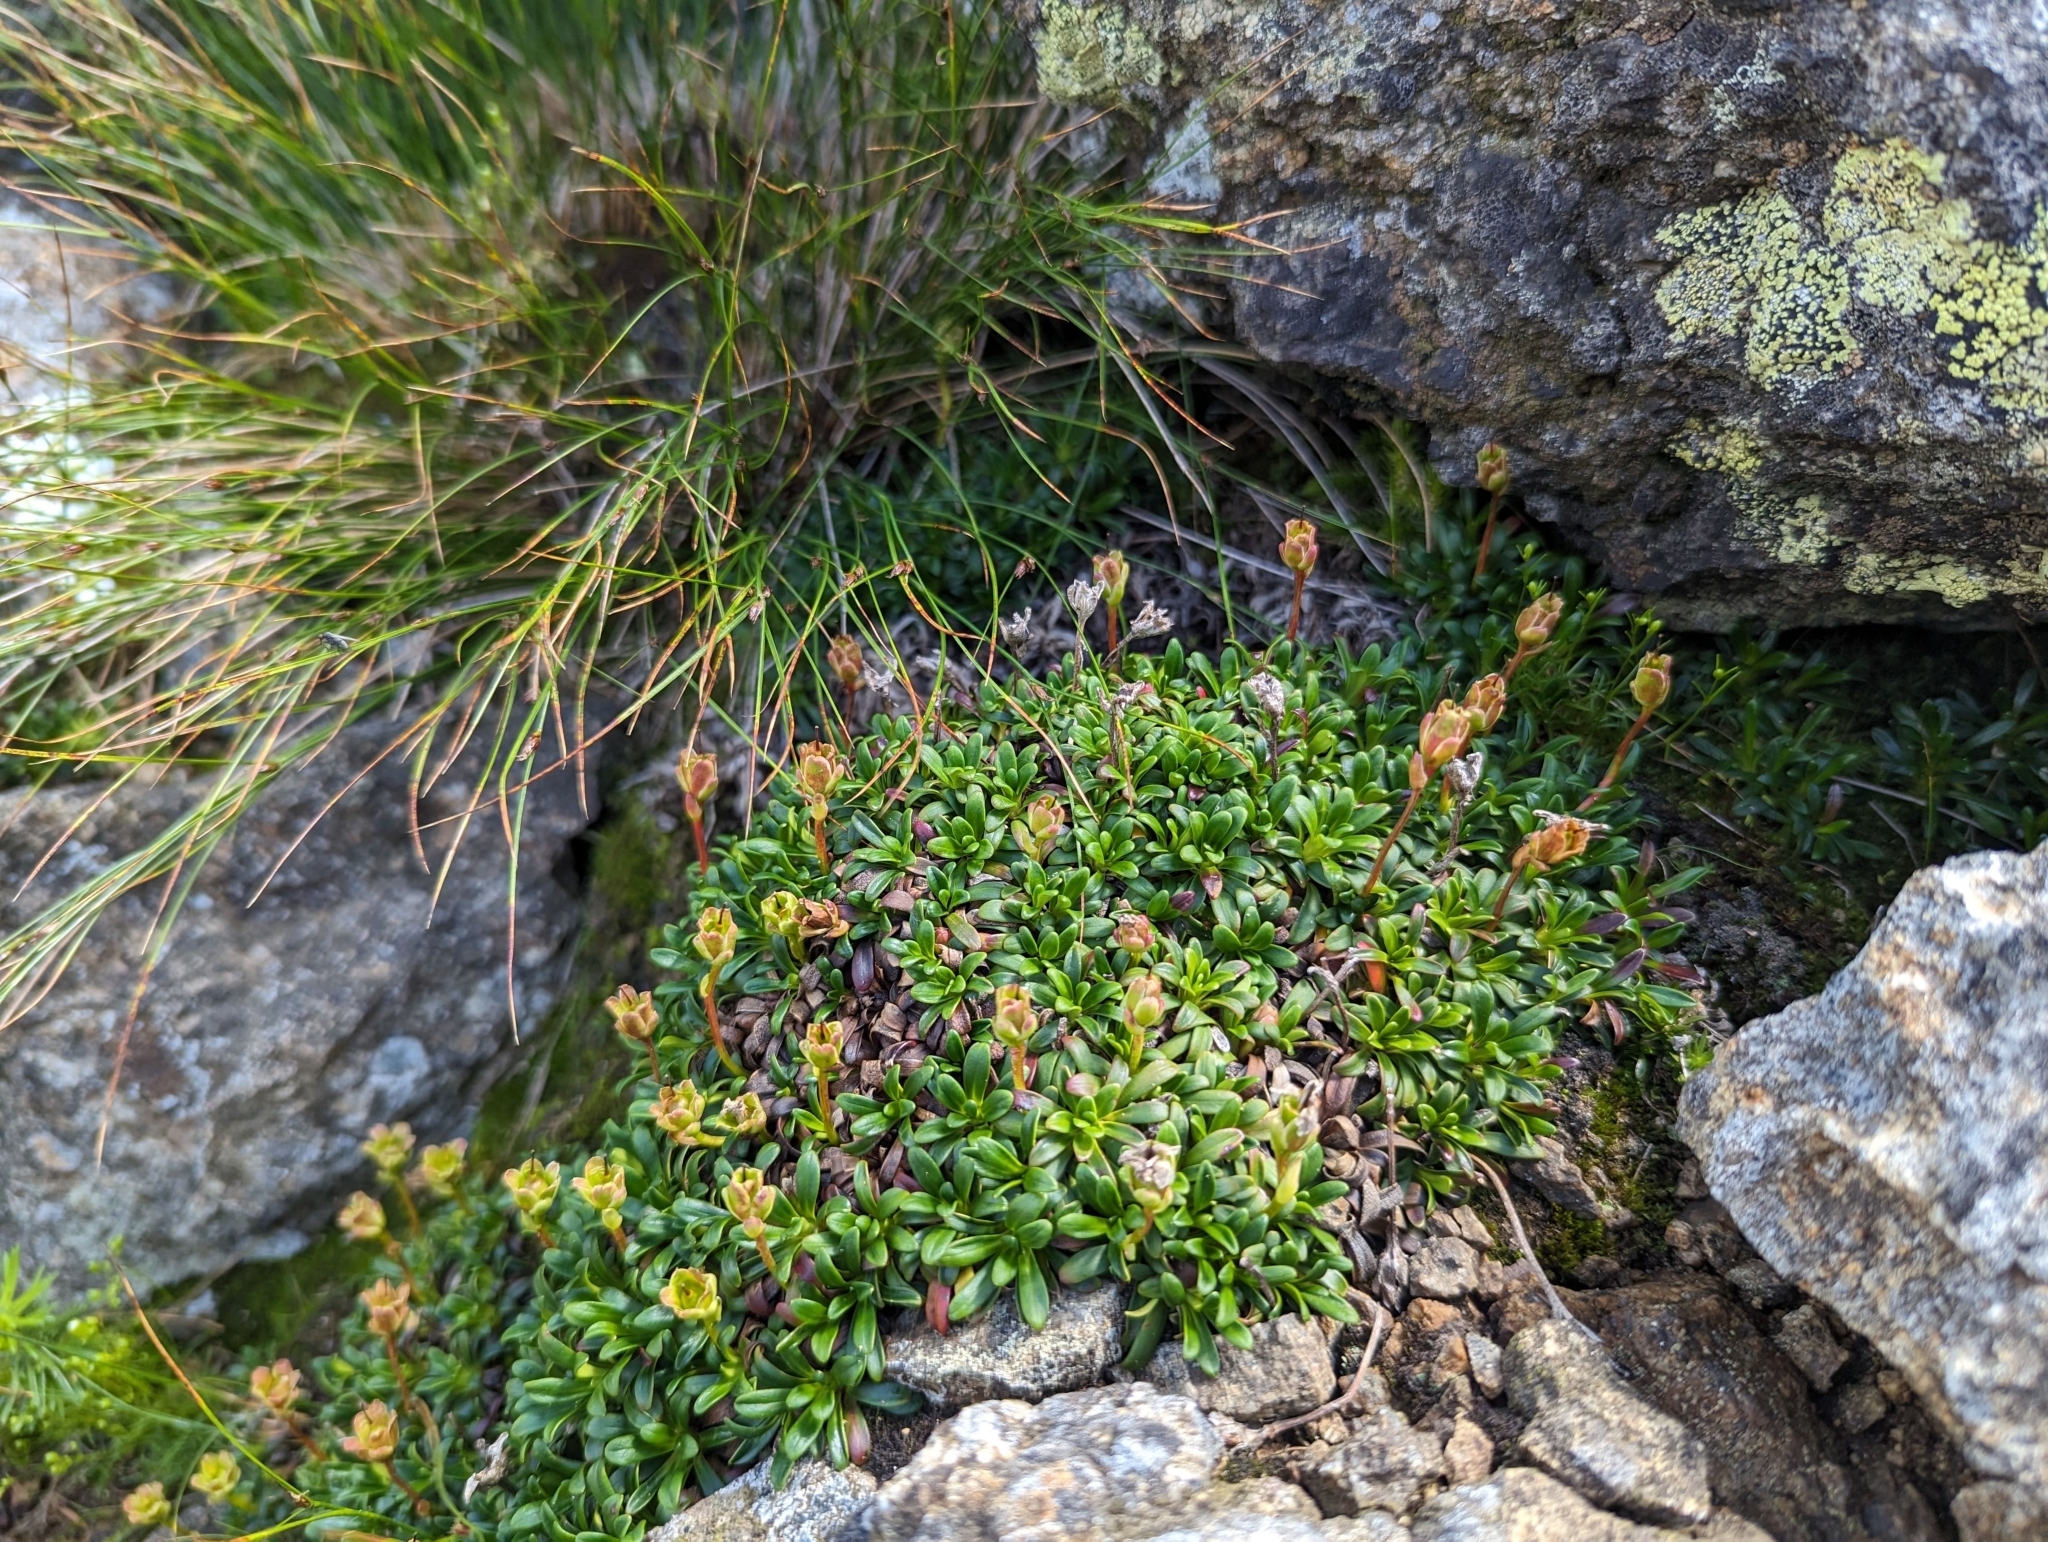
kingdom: Plantae
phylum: Tracheophyta
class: Magnoliopsida
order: Ericales
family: Diapensiaceae
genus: Diapensia
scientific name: Diapensia lapponica
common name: Diapensia
